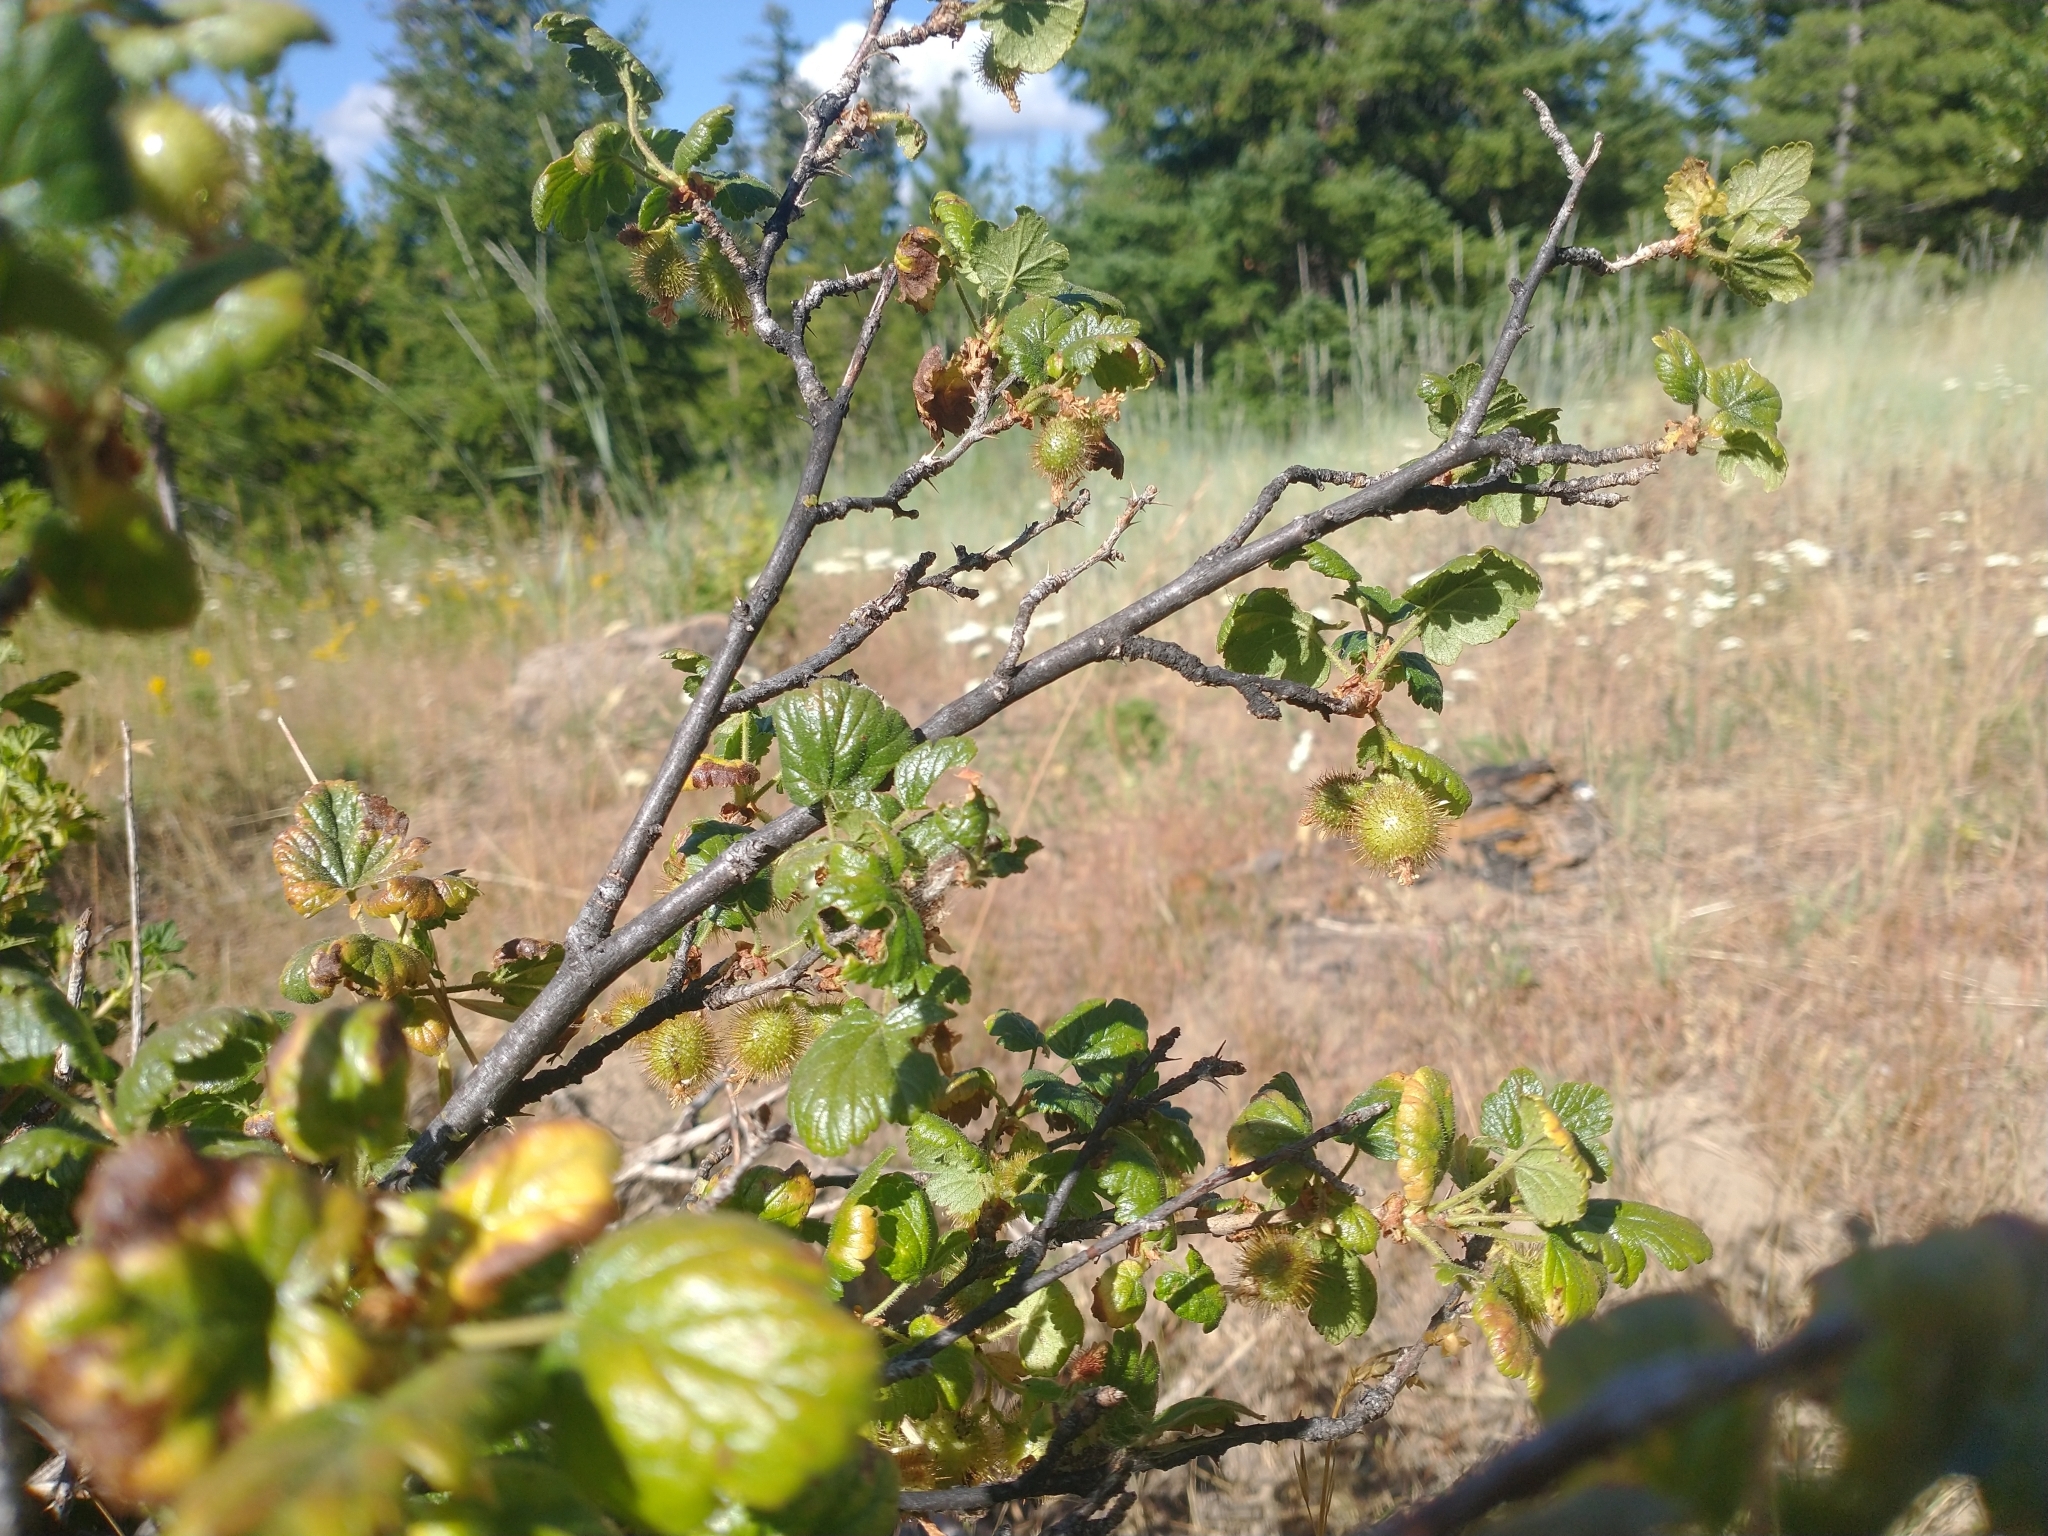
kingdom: Plantae
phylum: Tracheophyta
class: Magnoliopsida
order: Saxifragales
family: Grossulariaceae
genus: Ribes
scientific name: Ribes watsonianum
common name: Mount adams gooseberry
